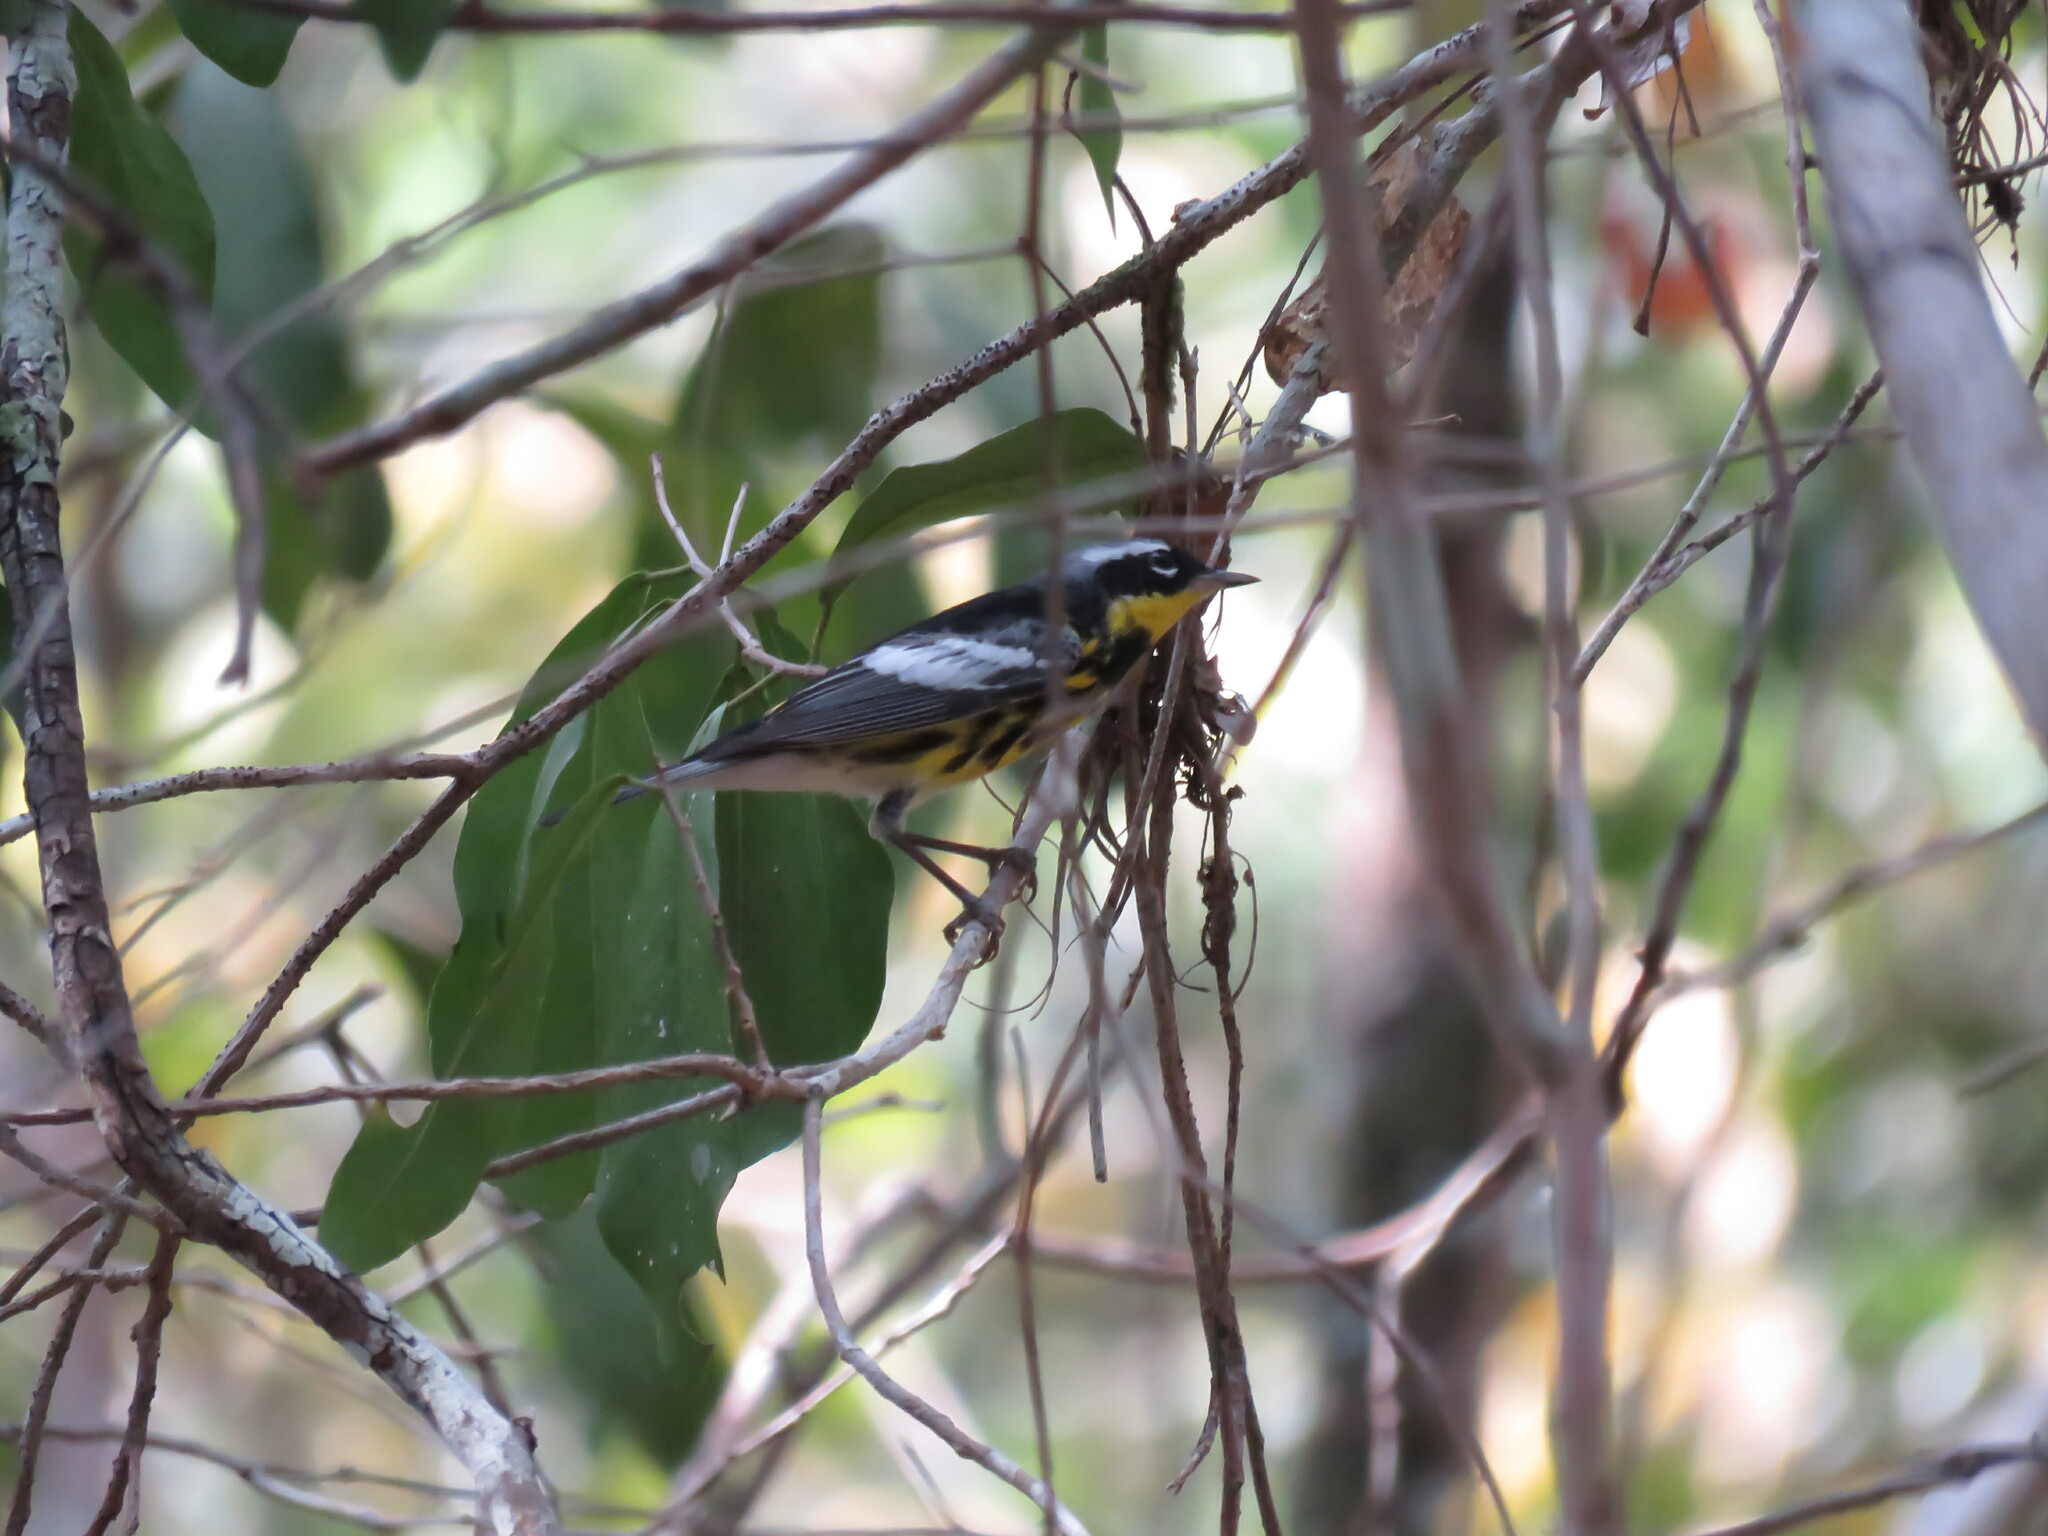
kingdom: Animalia
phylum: Chordata
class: Aves
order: Passeriformes
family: Parulidae
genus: Setophaga
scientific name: Setophaga magnolia
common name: Magnolia warbler
